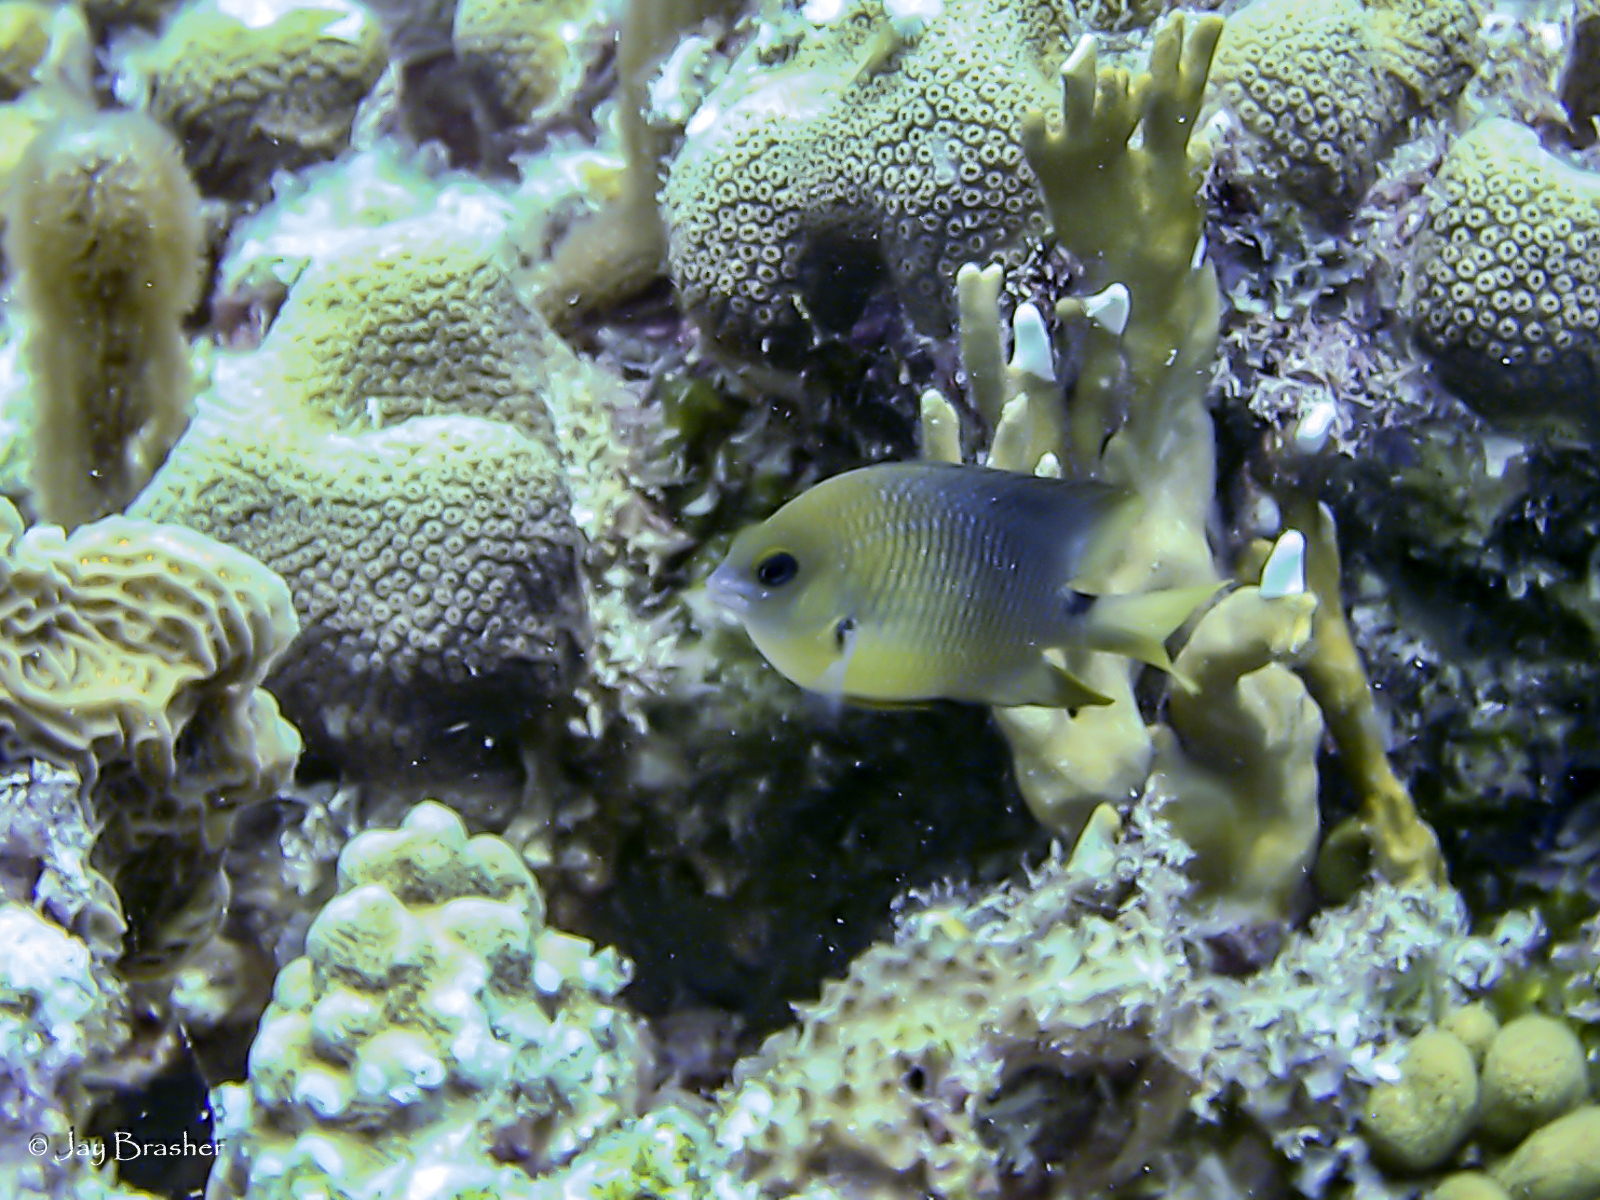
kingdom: Animalia
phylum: Chordata
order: Perciformes
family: Pomacentridae
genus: Stegastes
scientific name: Stegastes planifrons
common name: Threespot damselfish
